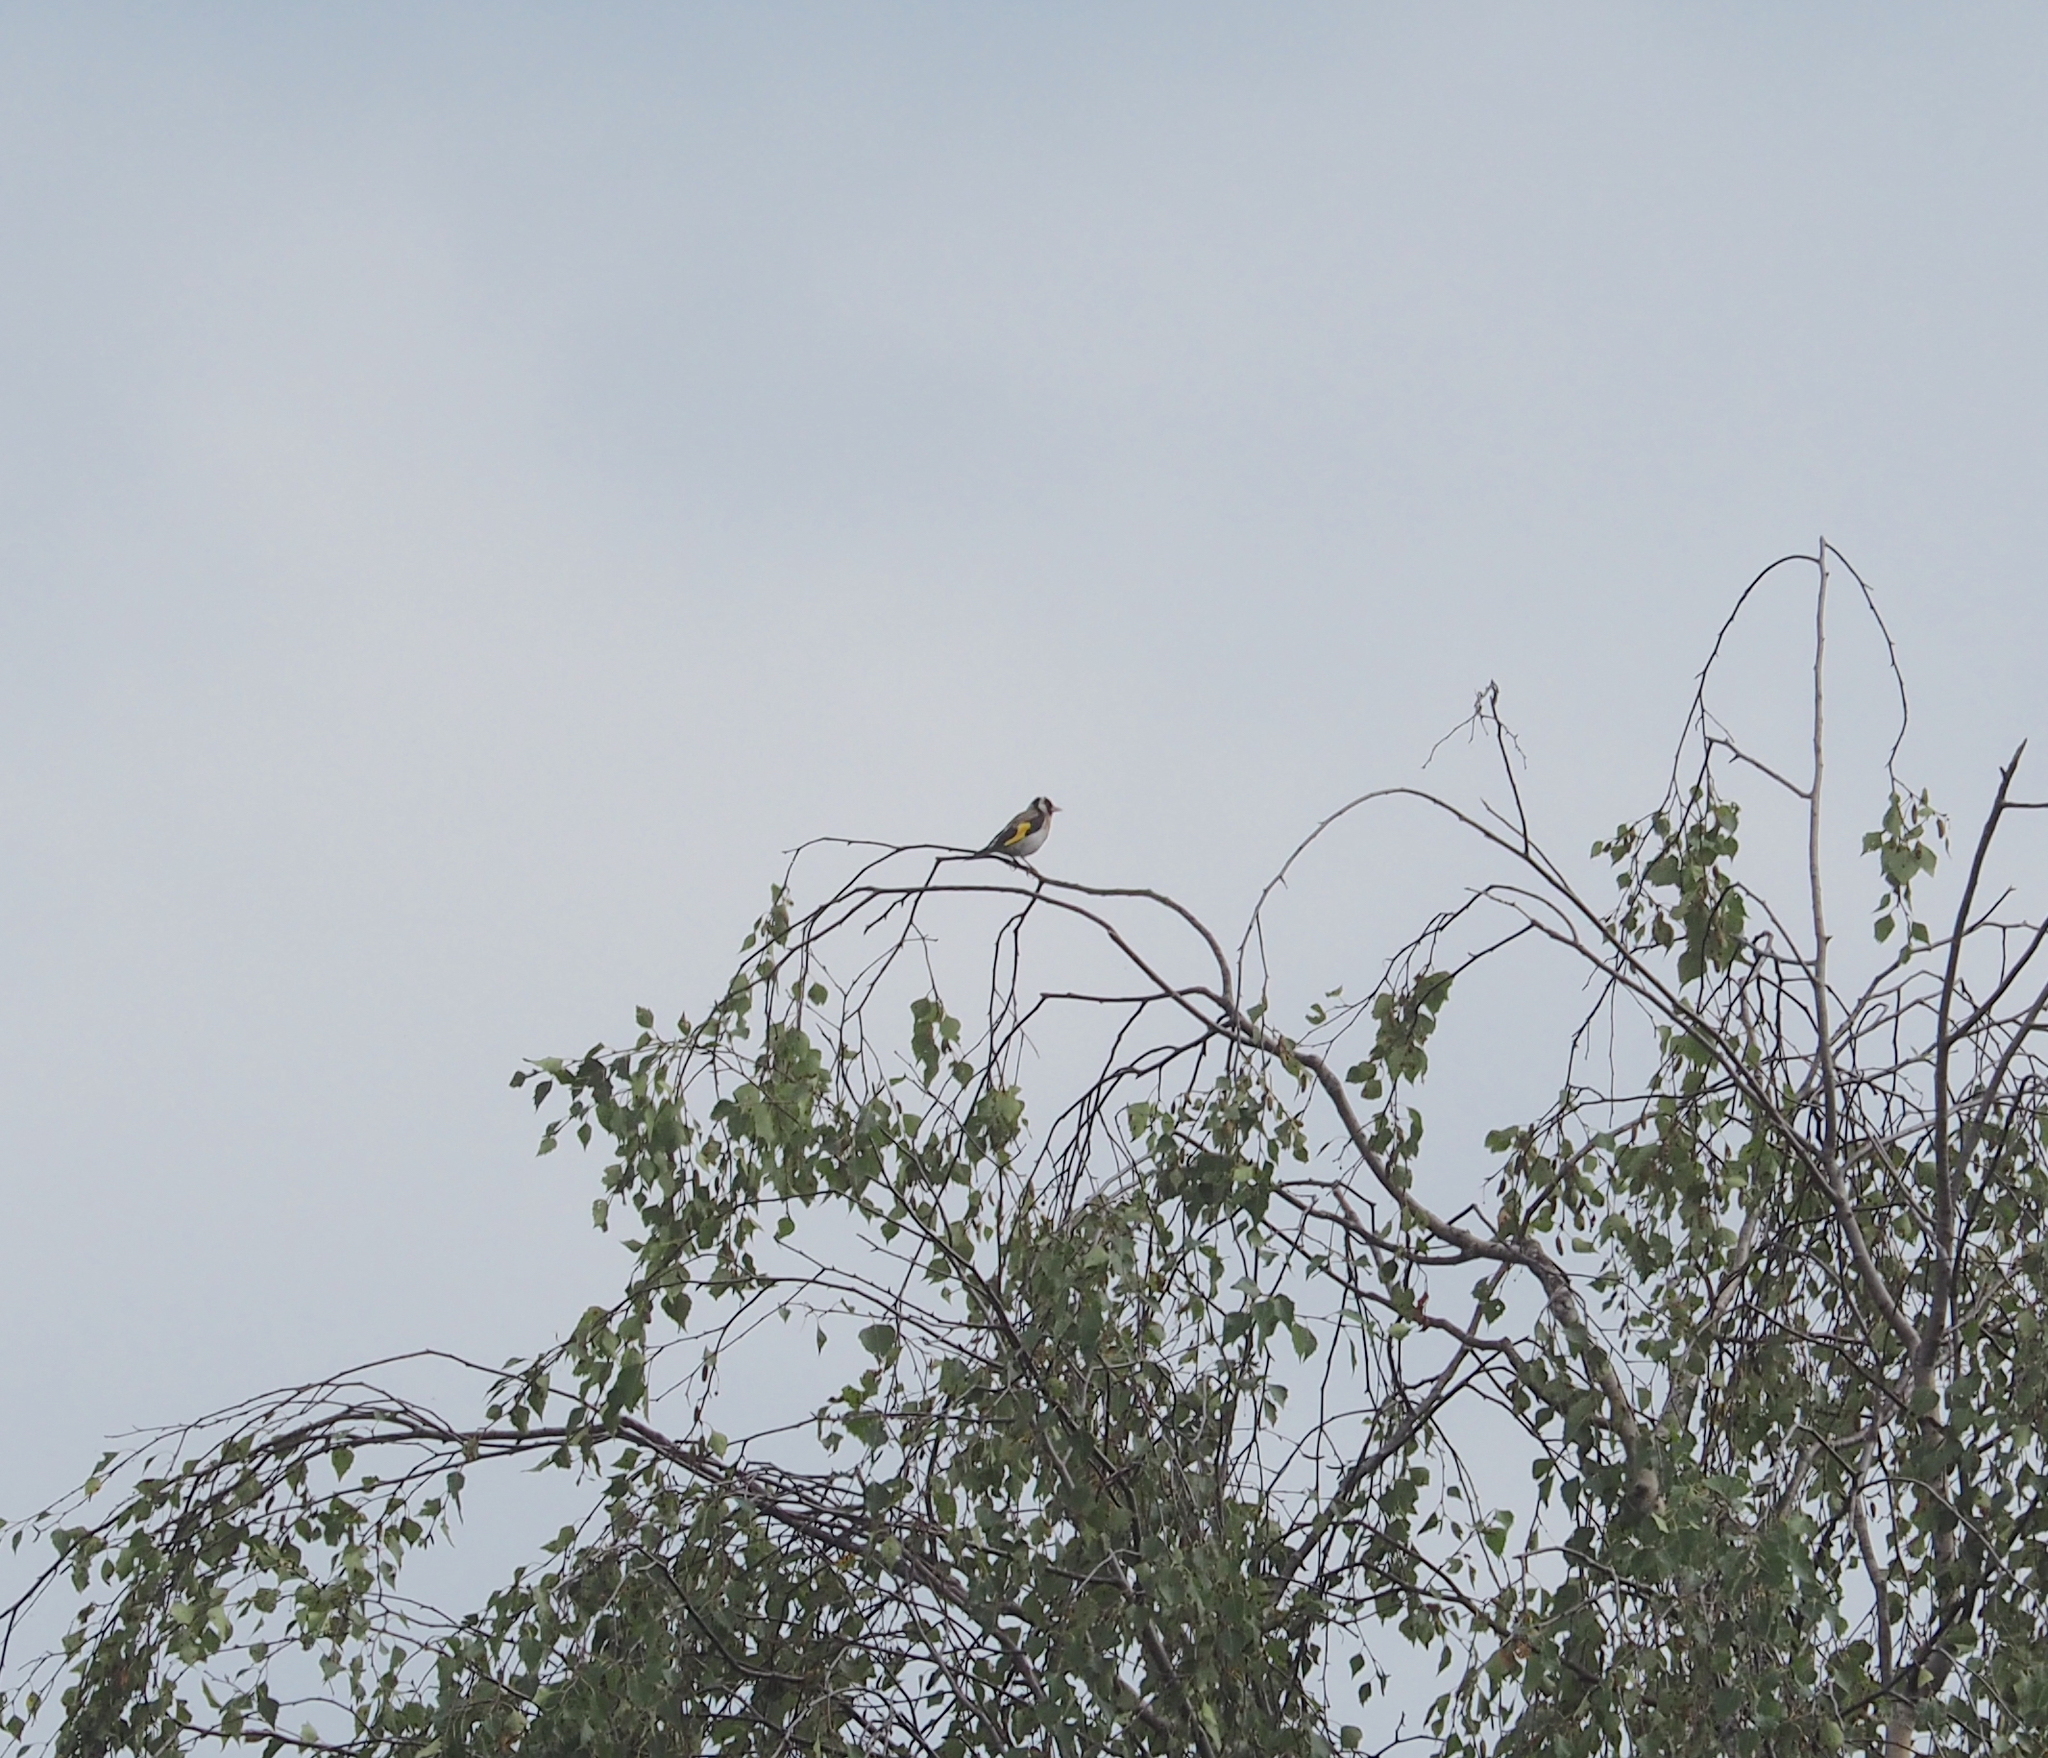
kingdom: Animalia
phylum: Chordata
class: Aves
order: Passeriformes
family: Fringillidae
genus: Carduelis
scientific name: Carduelis carduelis
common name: European goldfinch
